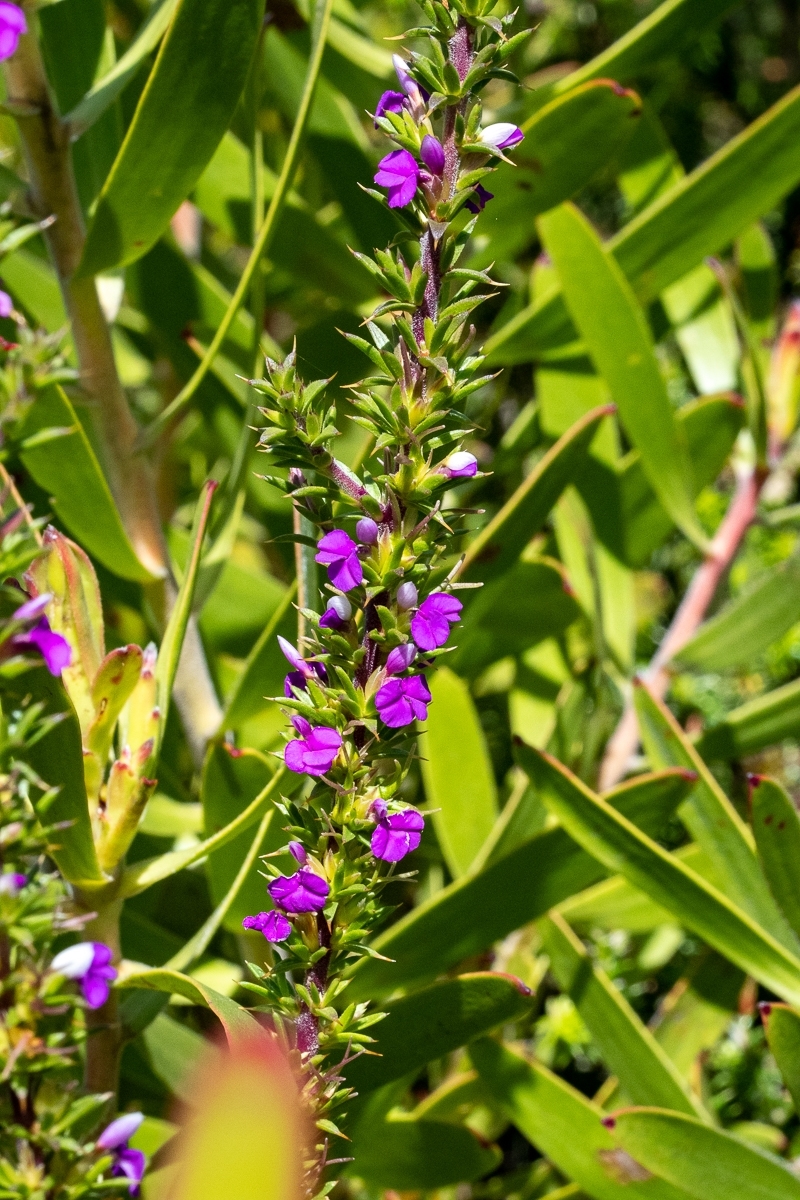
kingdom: Plantae
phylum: Tracheophyta
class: Magnoliopsida
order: Fabales
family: Polygalaceae
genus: Muraltia
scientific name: Muraltia heisteria
